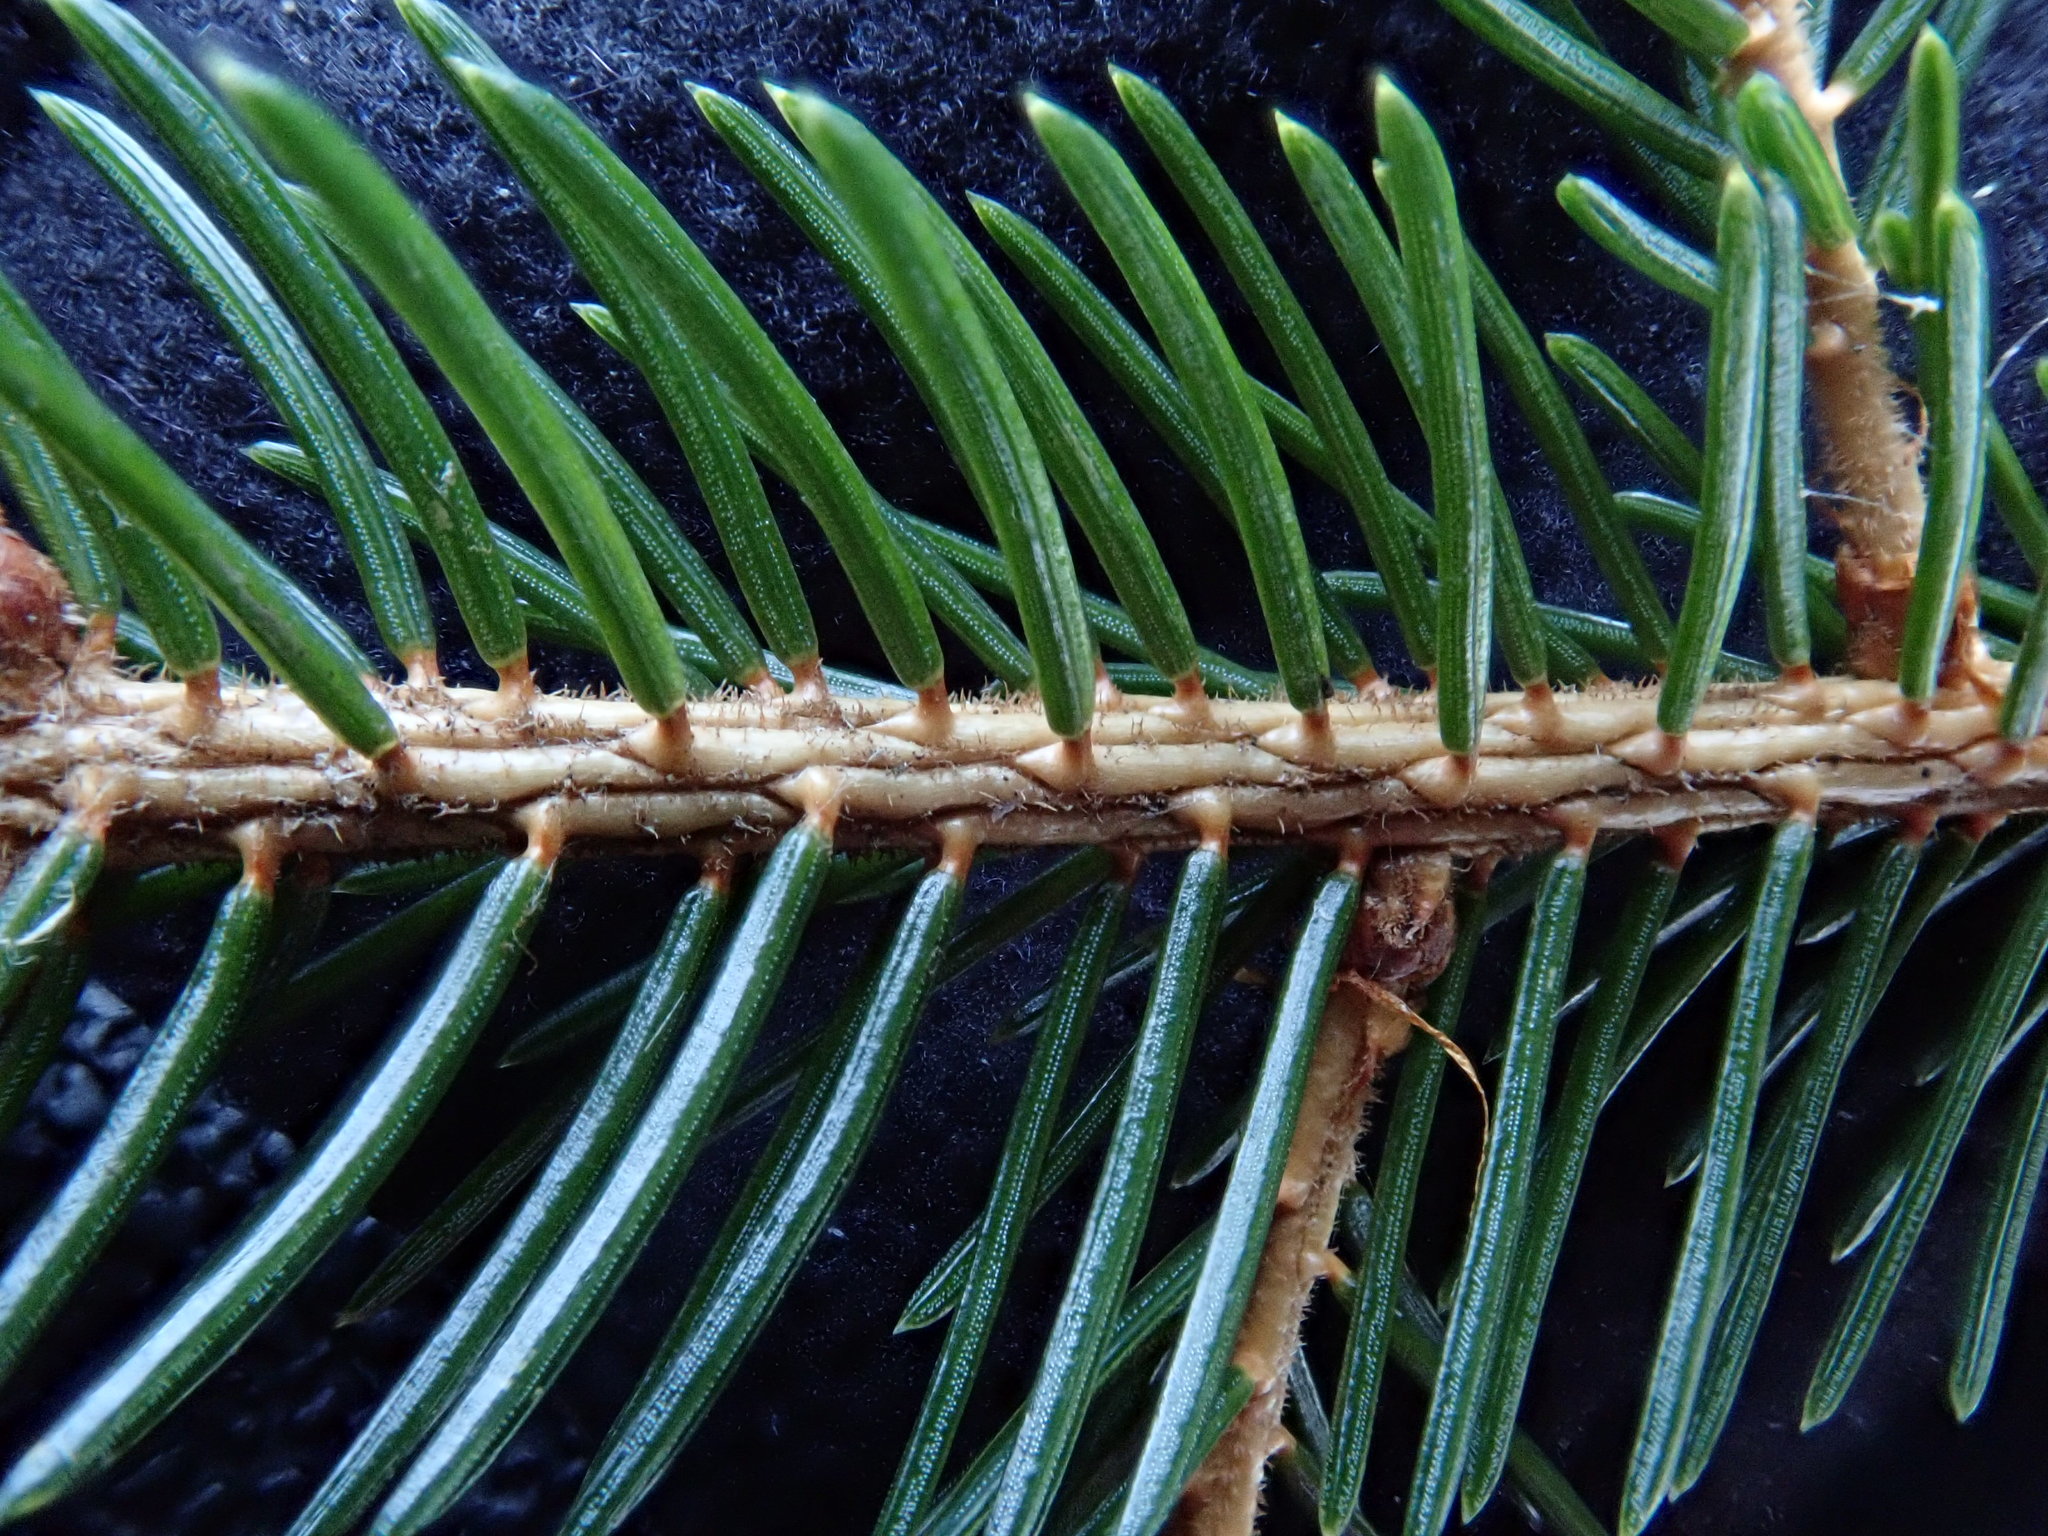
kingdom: Plantae
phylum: Tracheophyta
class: Pinopsida
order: Pinales
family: Pinaceae
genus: Picea
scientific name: Picea rubens
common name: Red spruce
